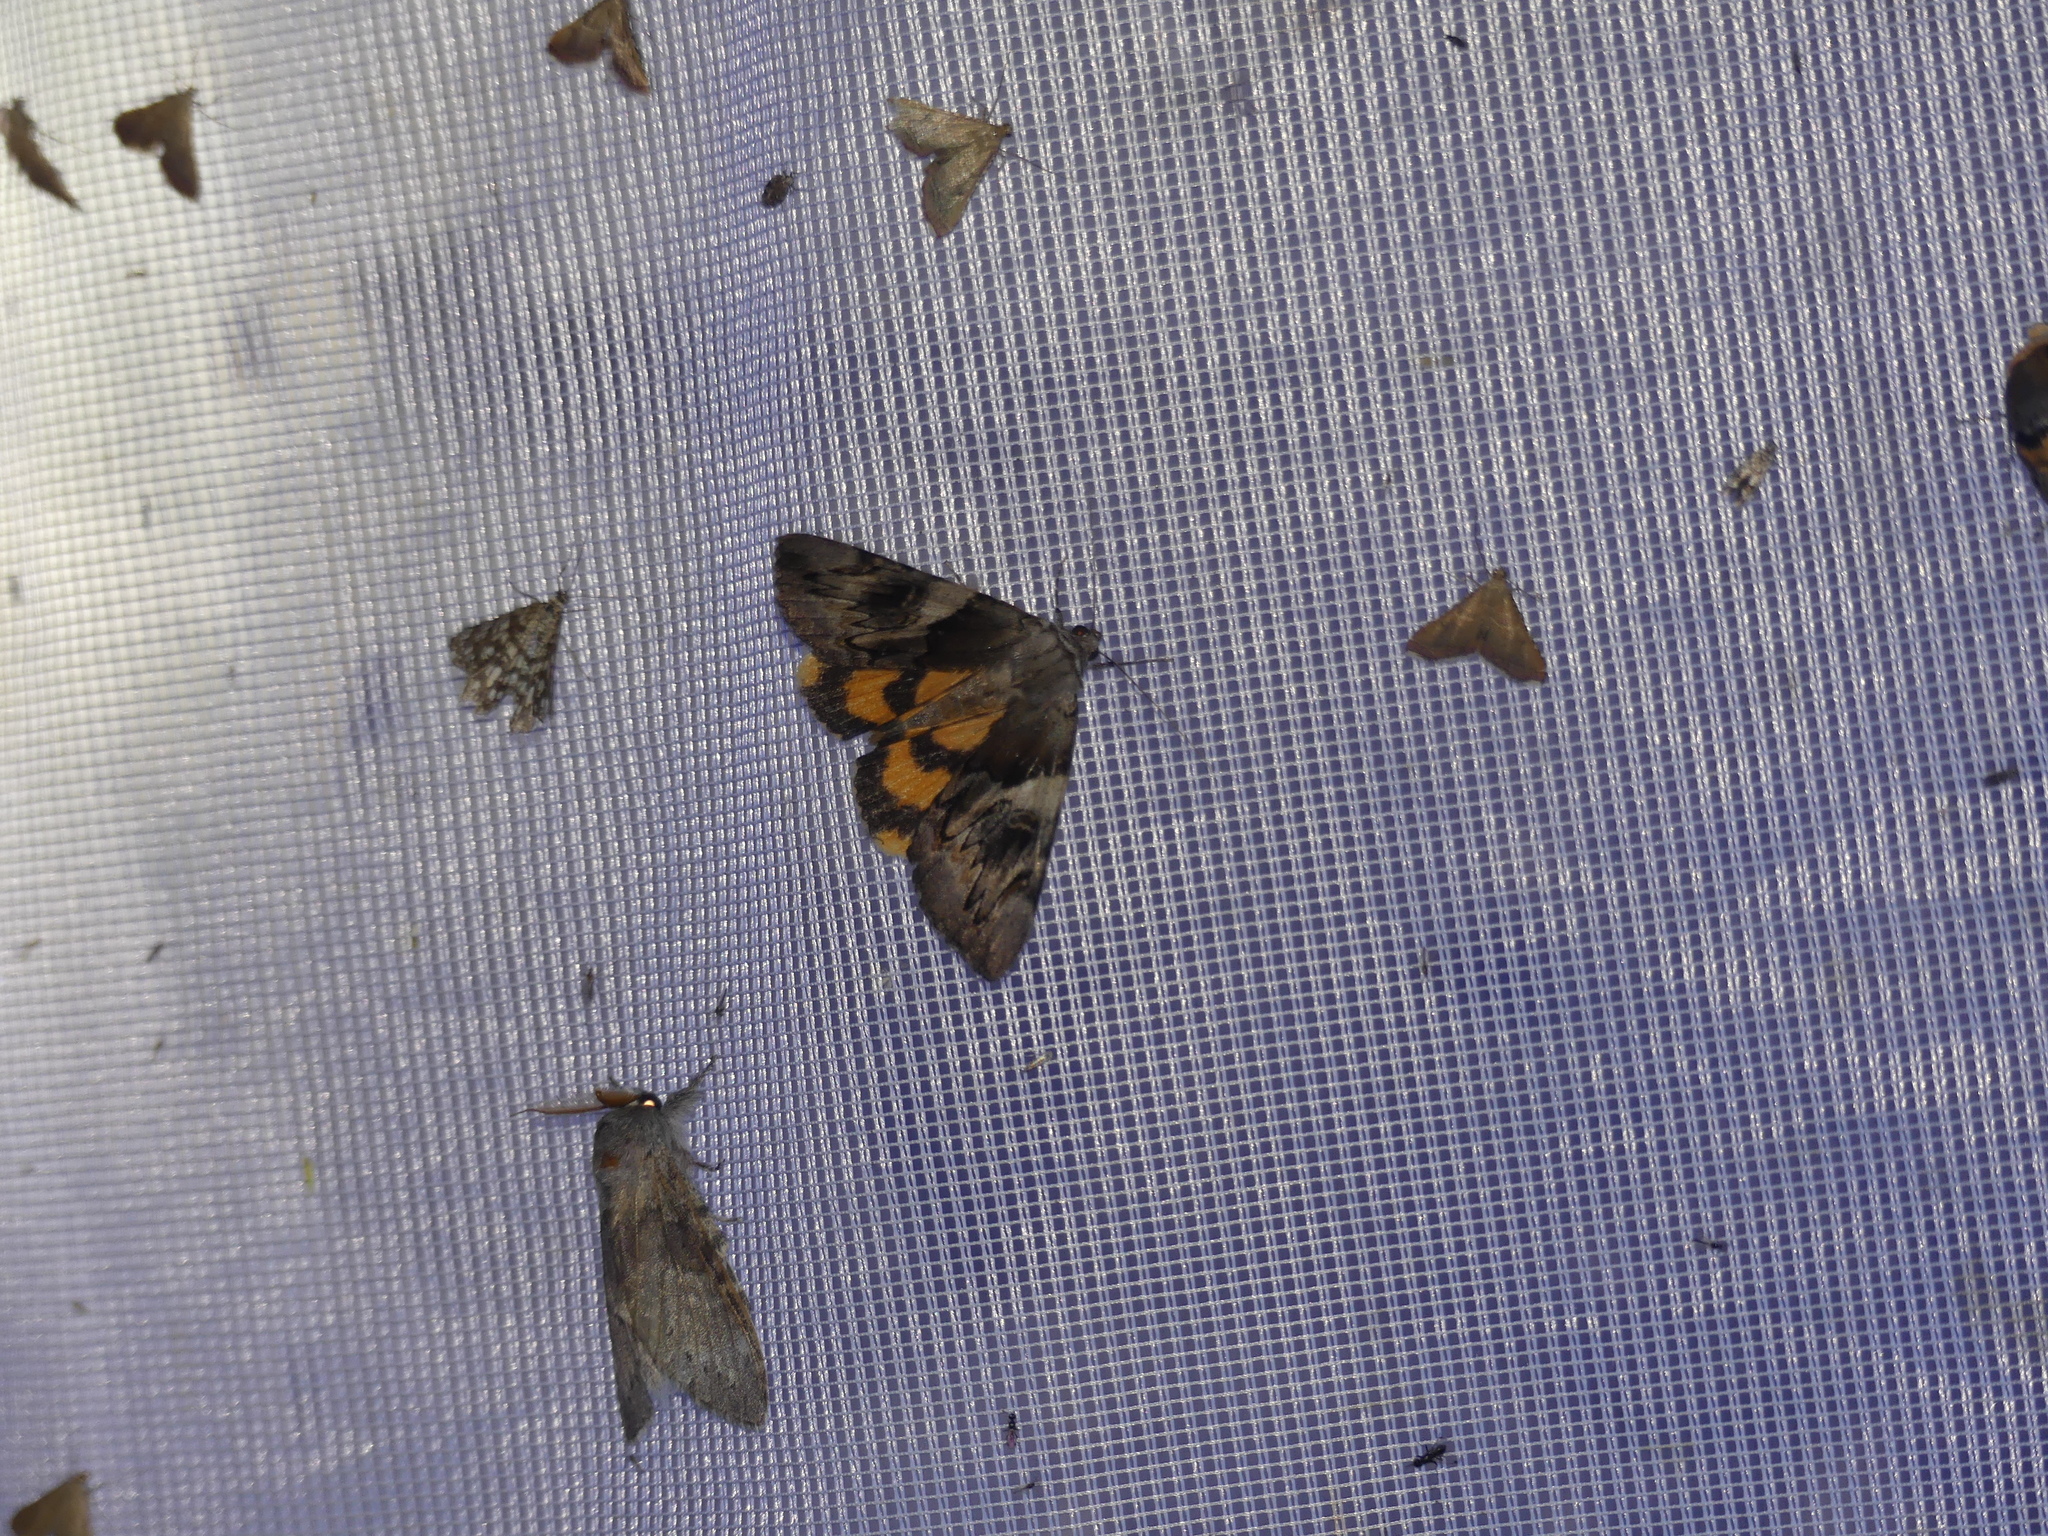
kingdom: Animalia
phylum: Arthropoda
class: Insecta
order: Lepidoptera
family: Erebidae
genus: Catocala
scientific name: Catocala fulminea
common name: Yellow bands underwing
